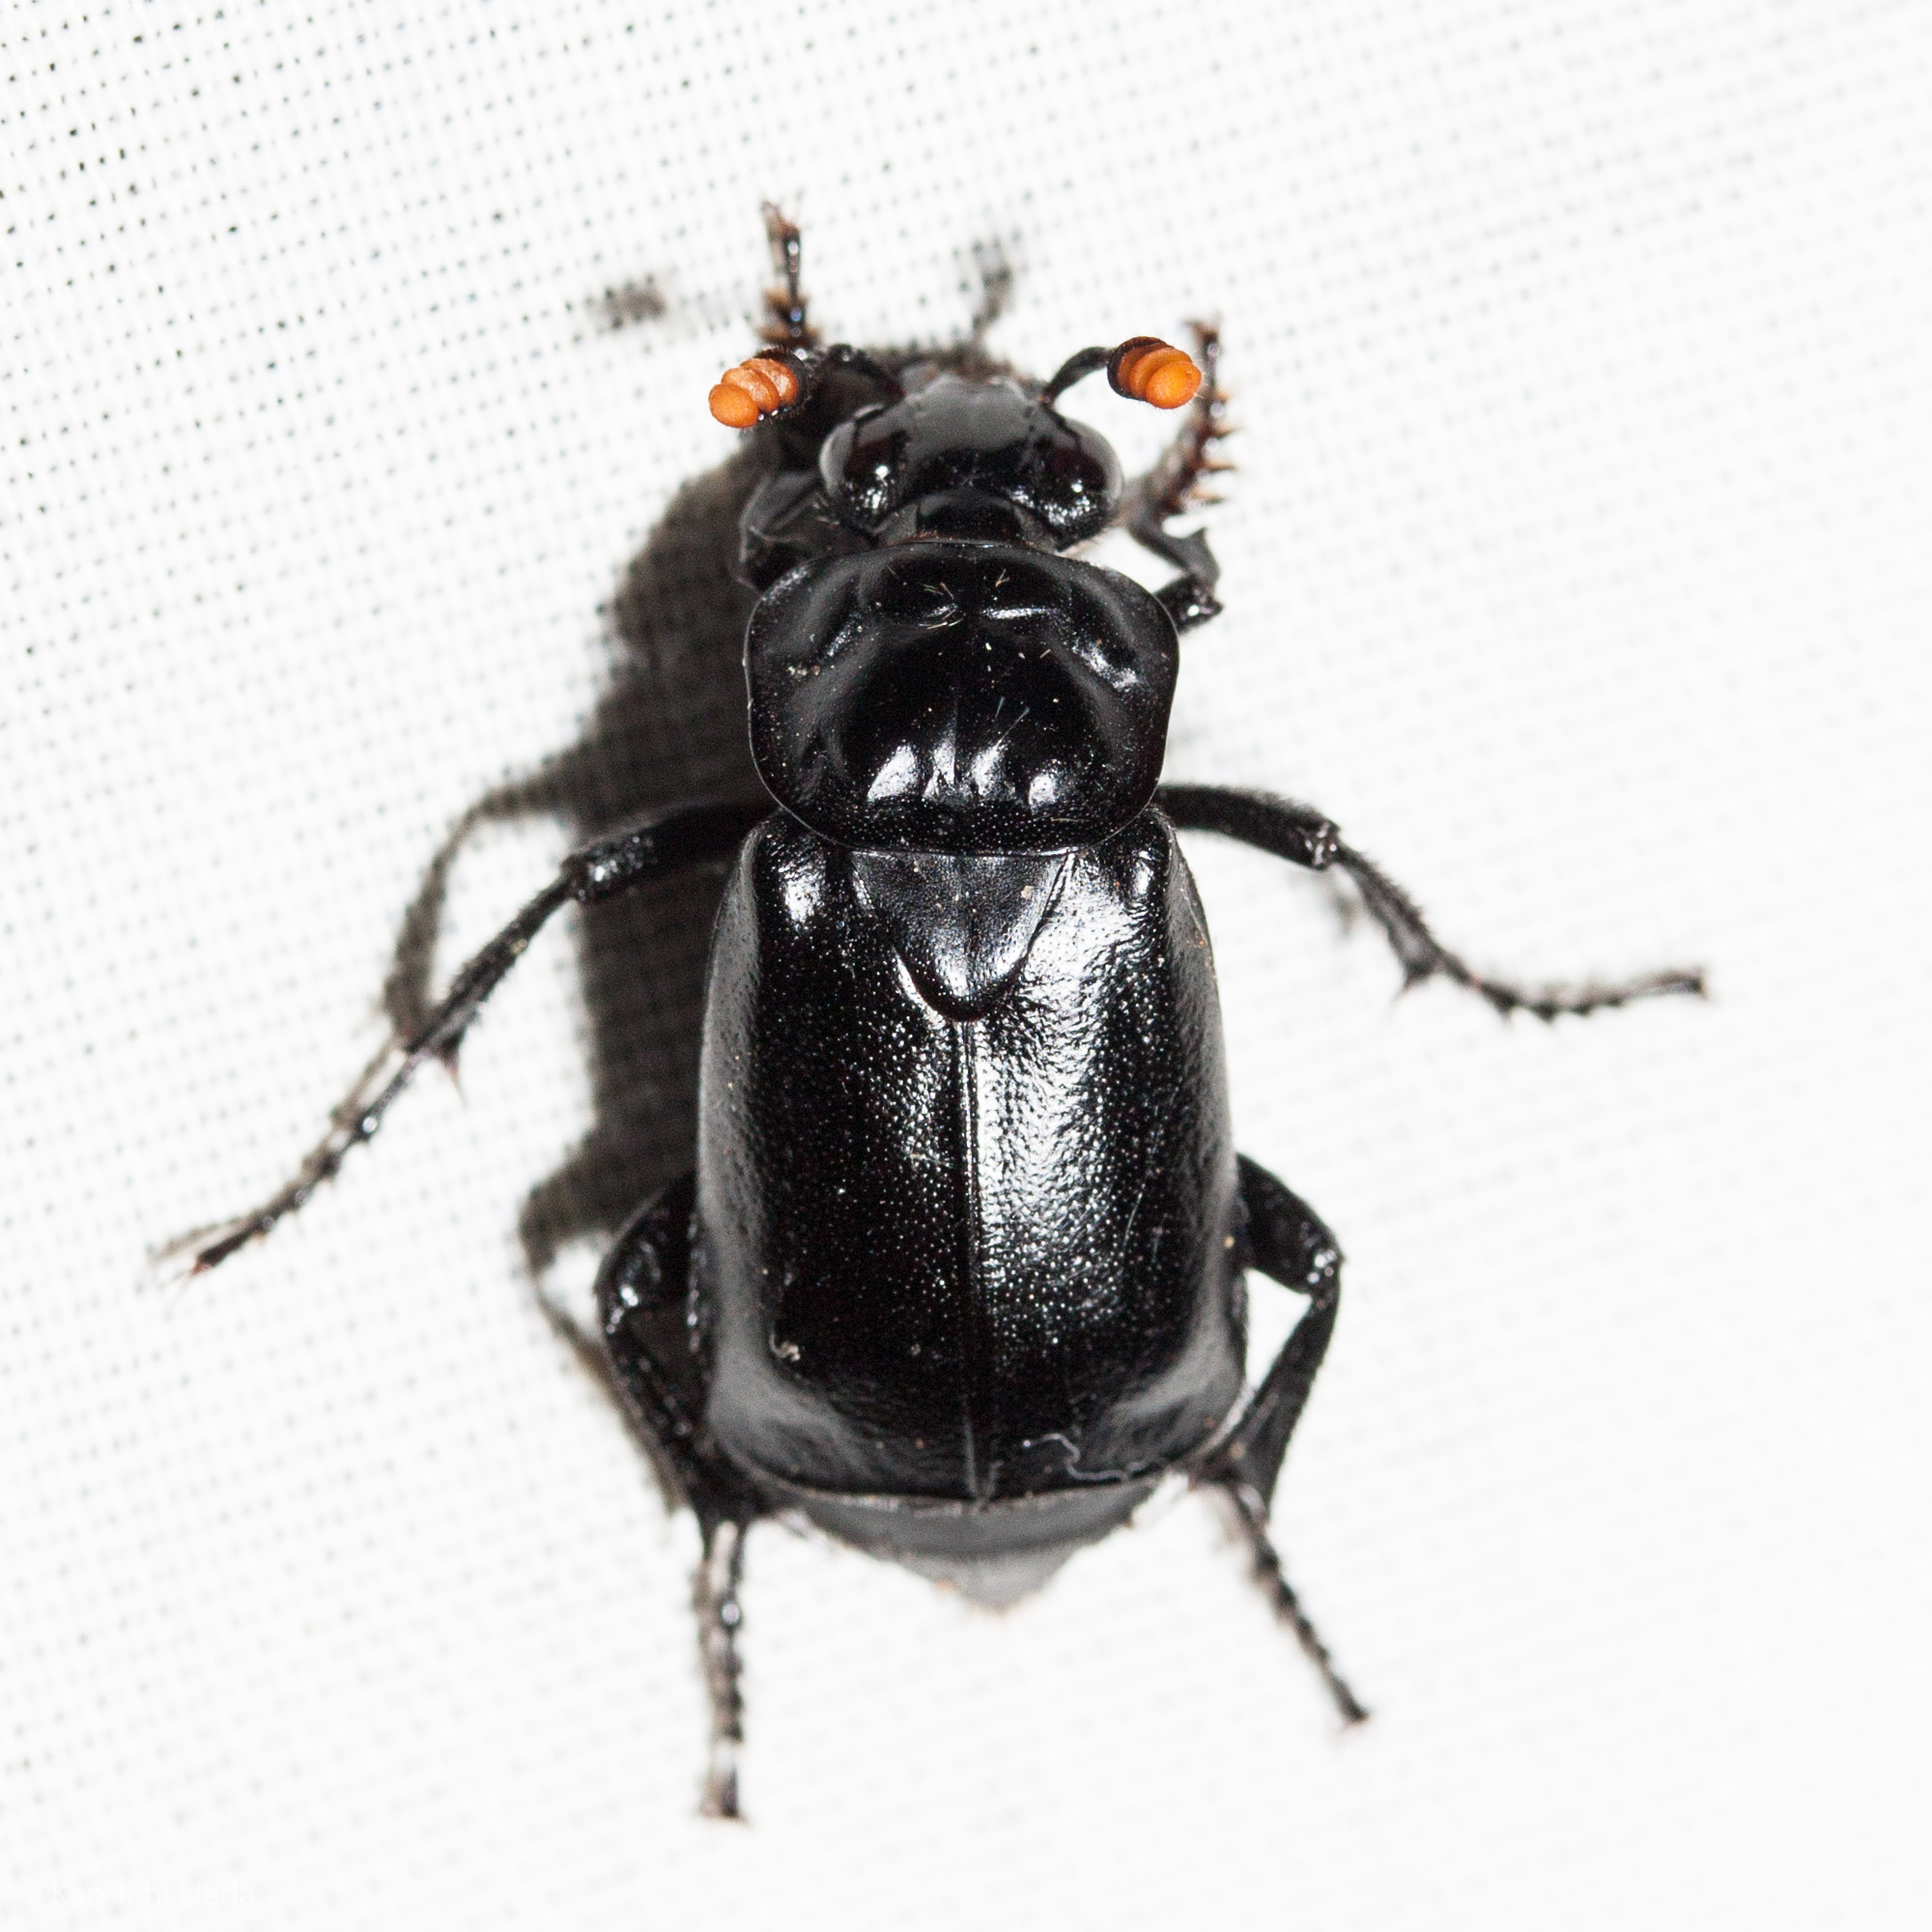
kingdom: Animalia
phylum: Arthropoda
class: Insecta
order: Coleoptera
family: Staphylinidae
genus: Nicrophorus
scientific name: Nicrophorus nigrita
